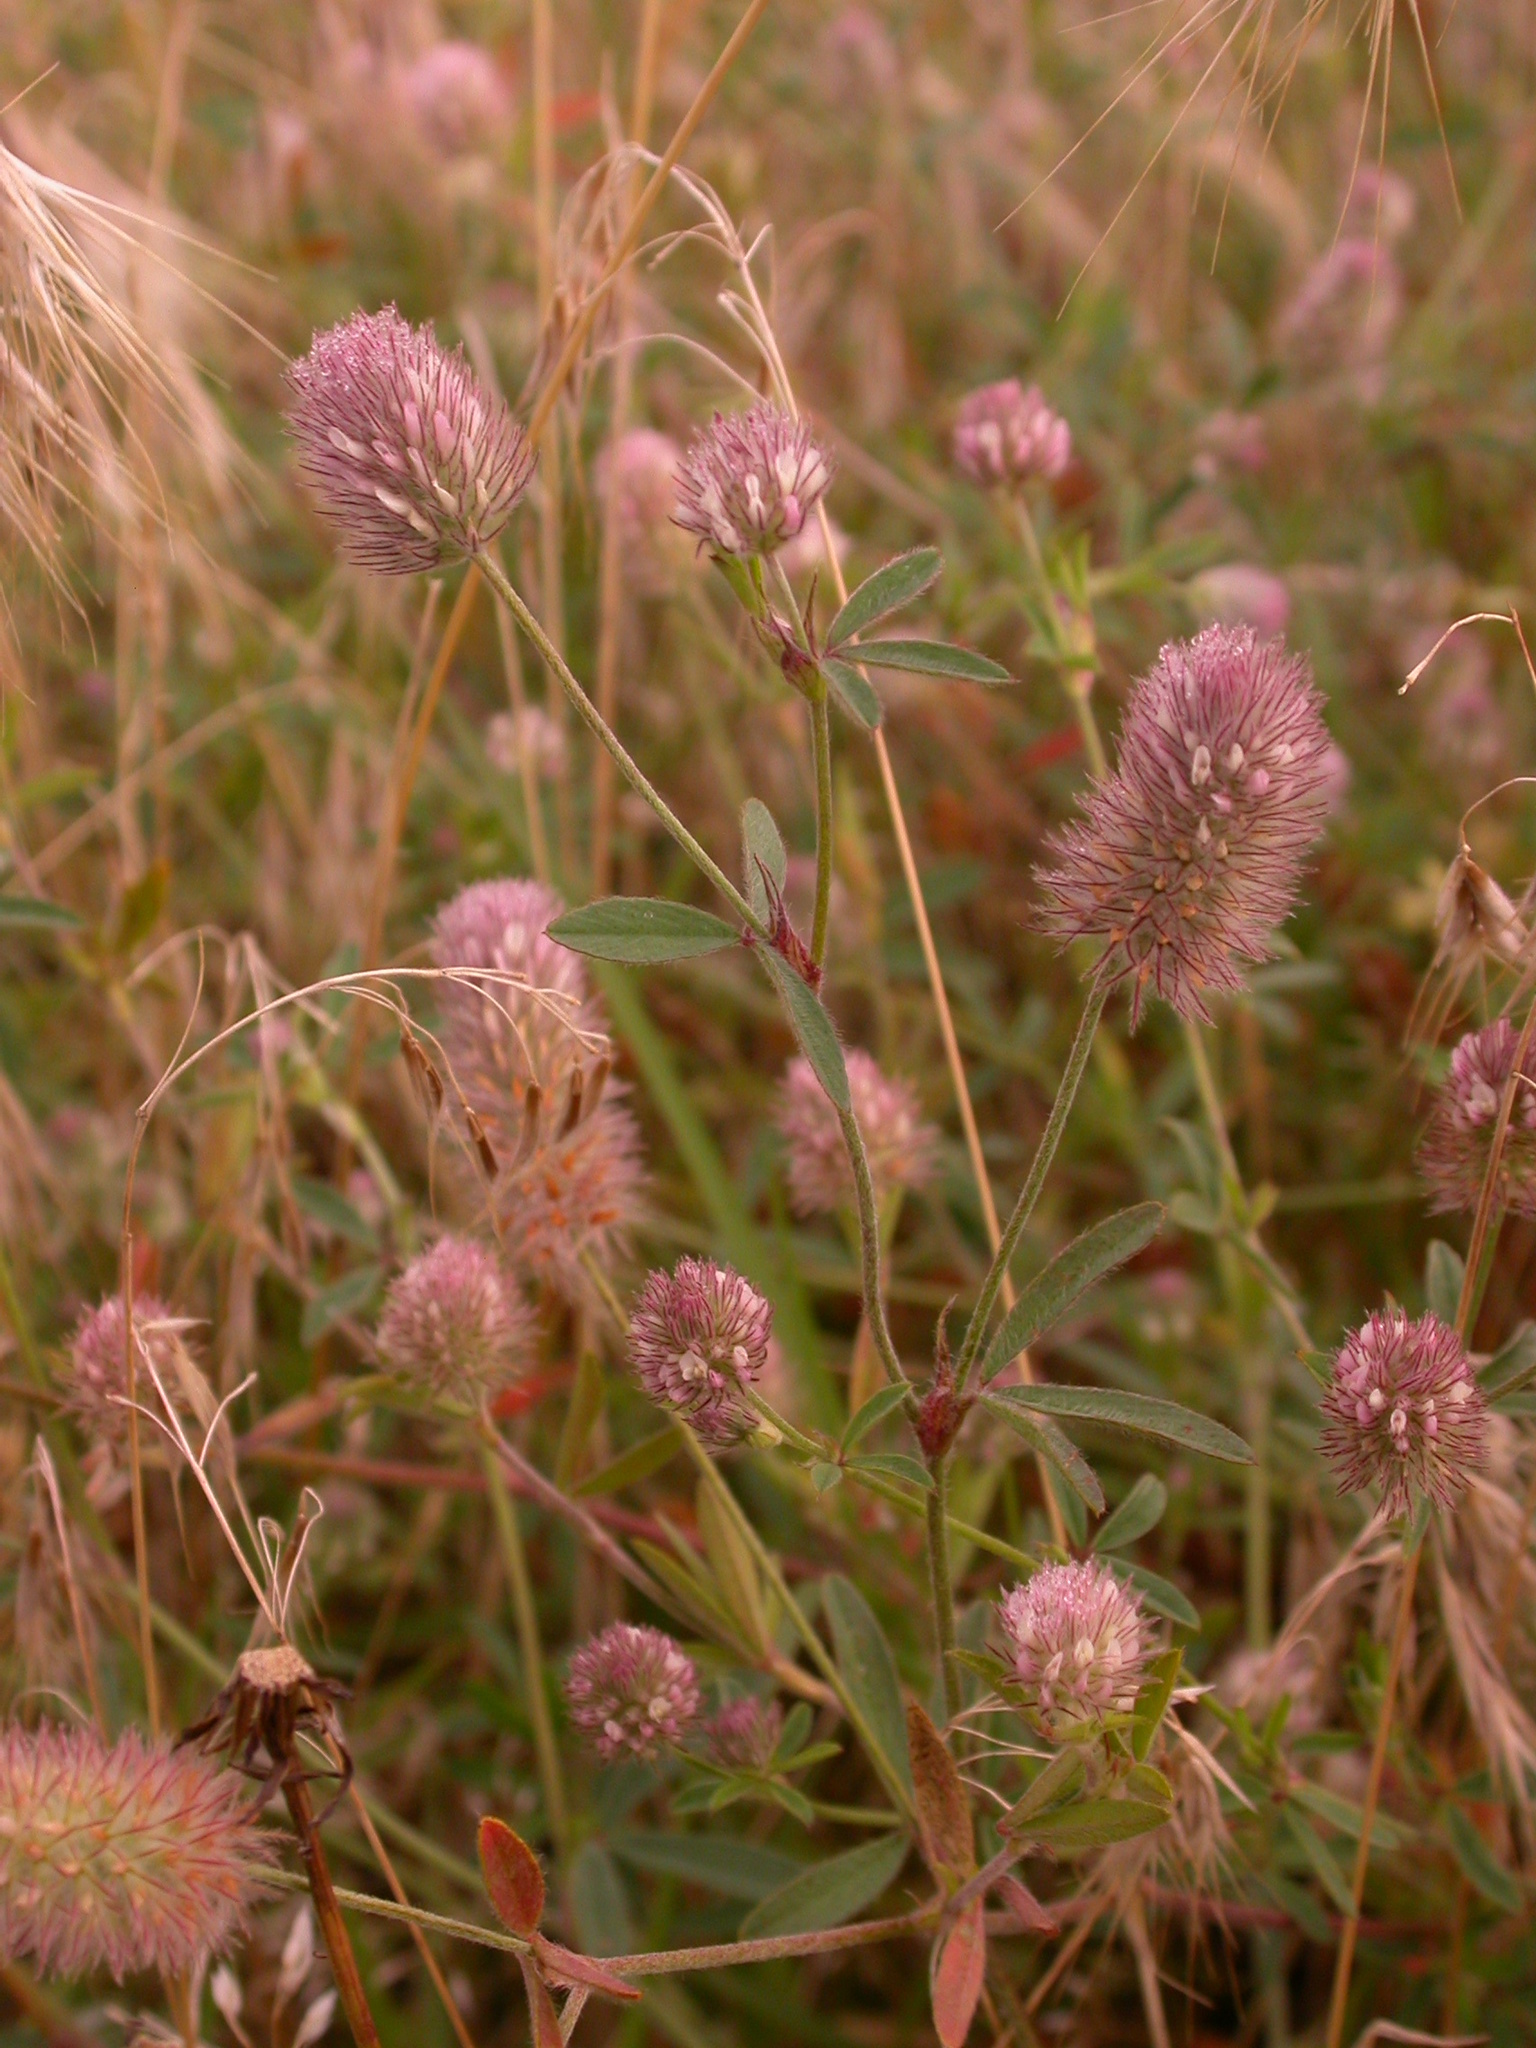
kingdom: Plantae
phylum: Tracheophyta
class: Magnoliopsida
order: Fabales
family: Fabaceae
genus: Trifolium
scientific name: Trifolium arvense
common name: Hare's-foot clover
